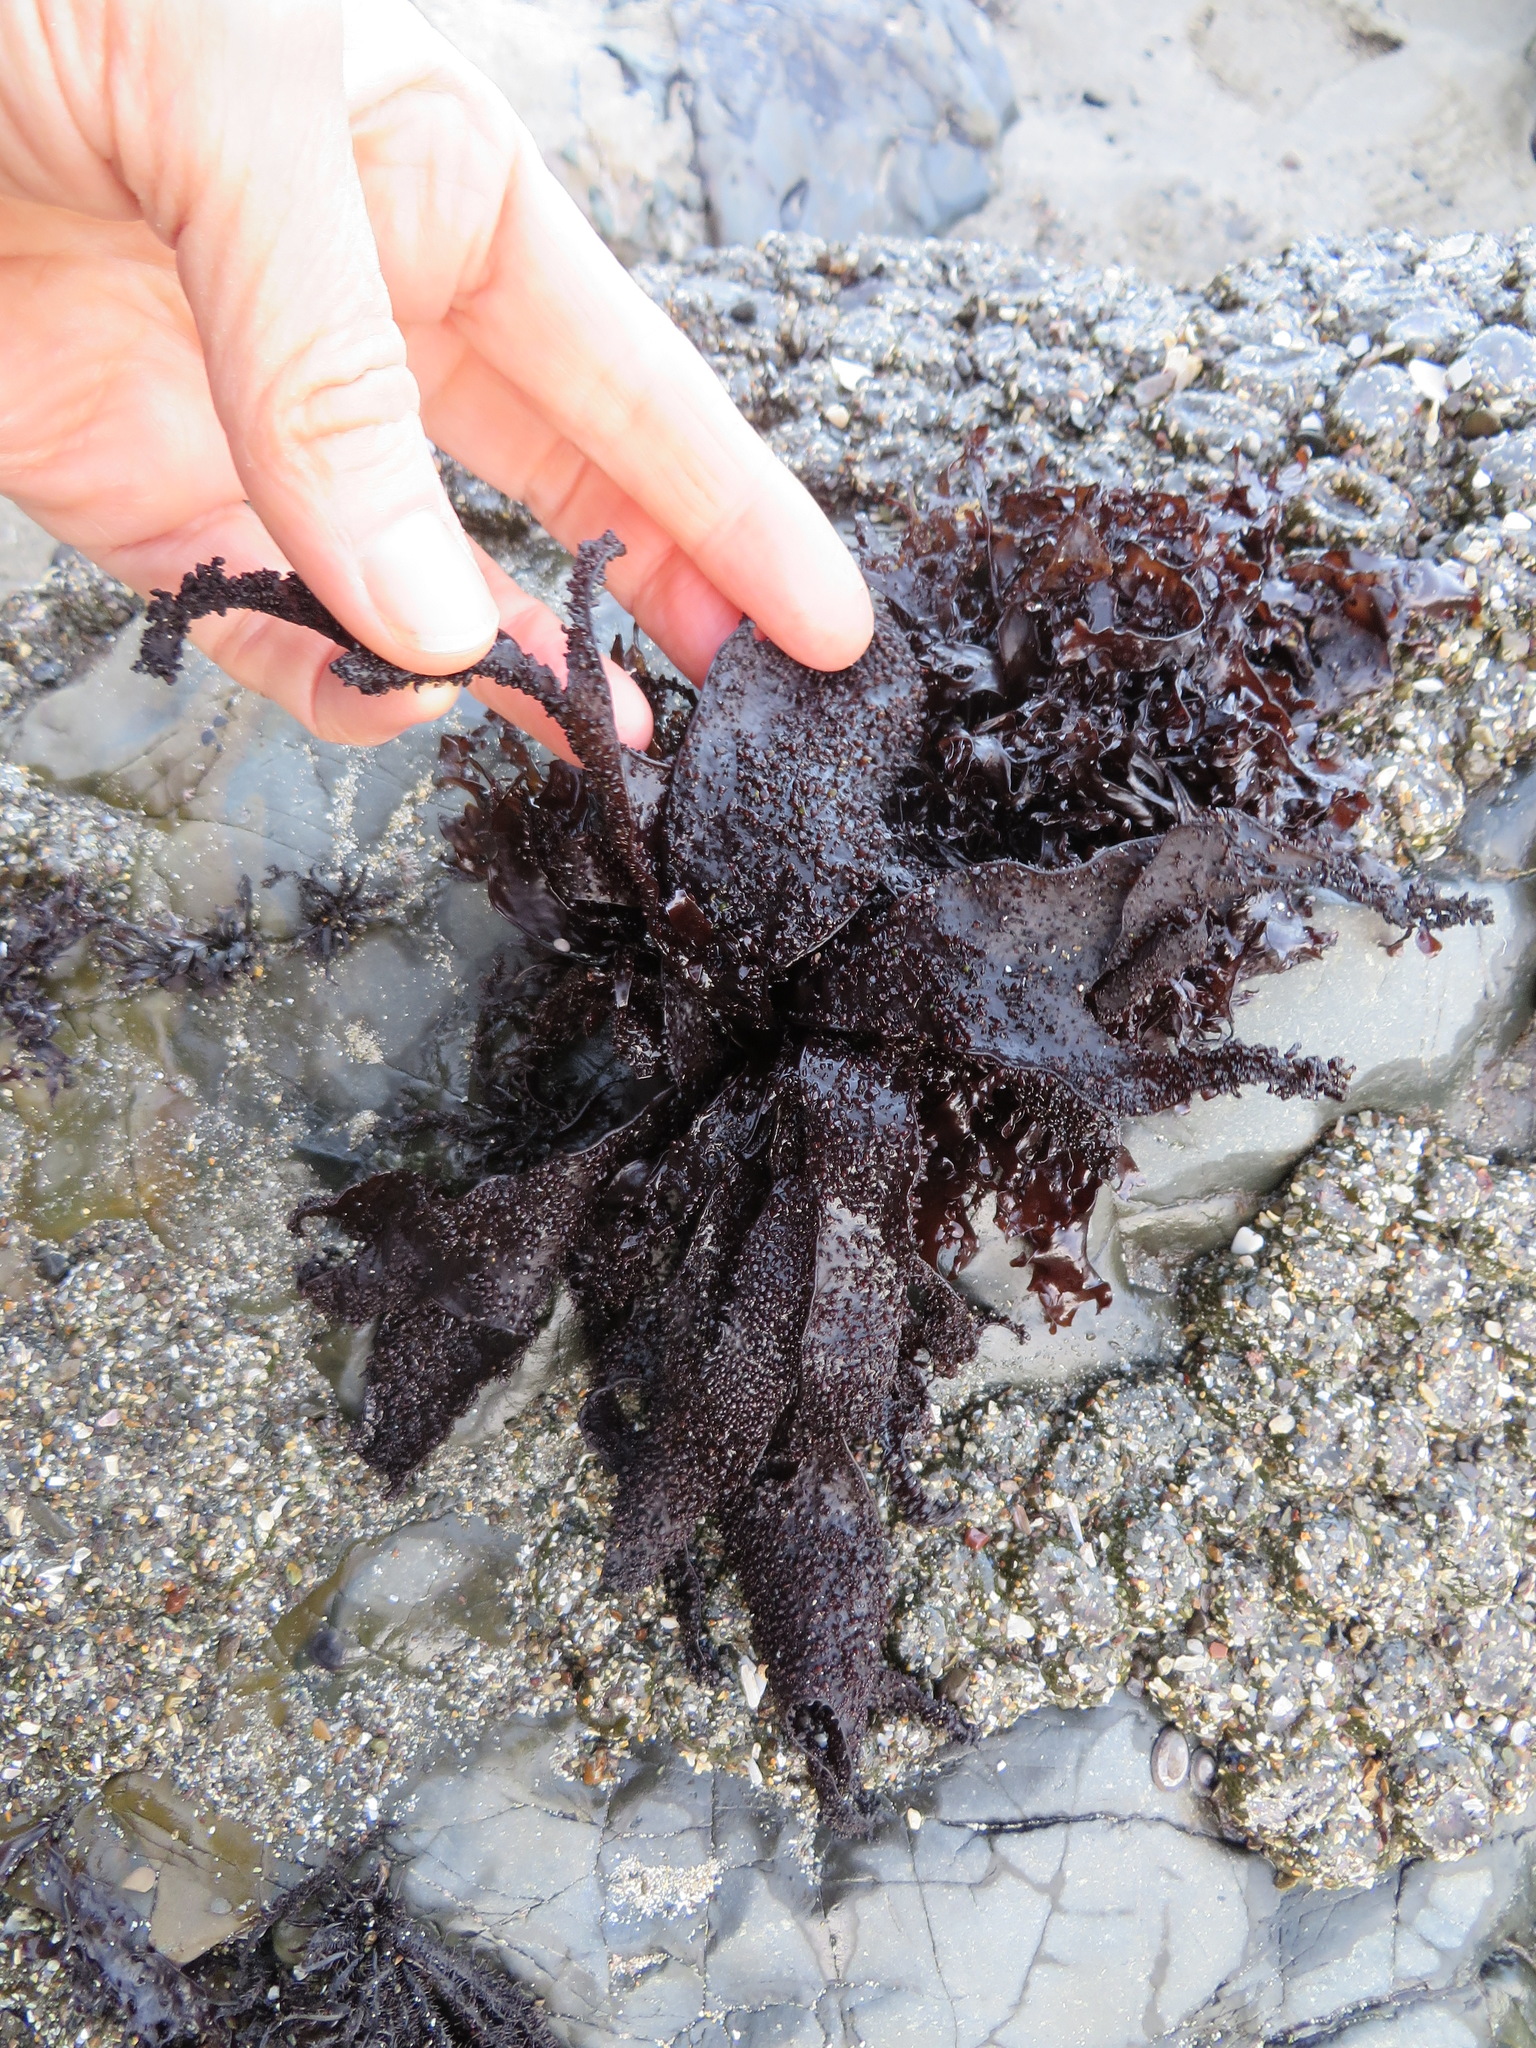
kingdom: Plantae
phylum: Rhodophyta
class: Florideophyceae
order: Gigartinales
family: Phyllophoraceae
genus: Mastocarpus
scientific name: Mastocarpus papillatus
